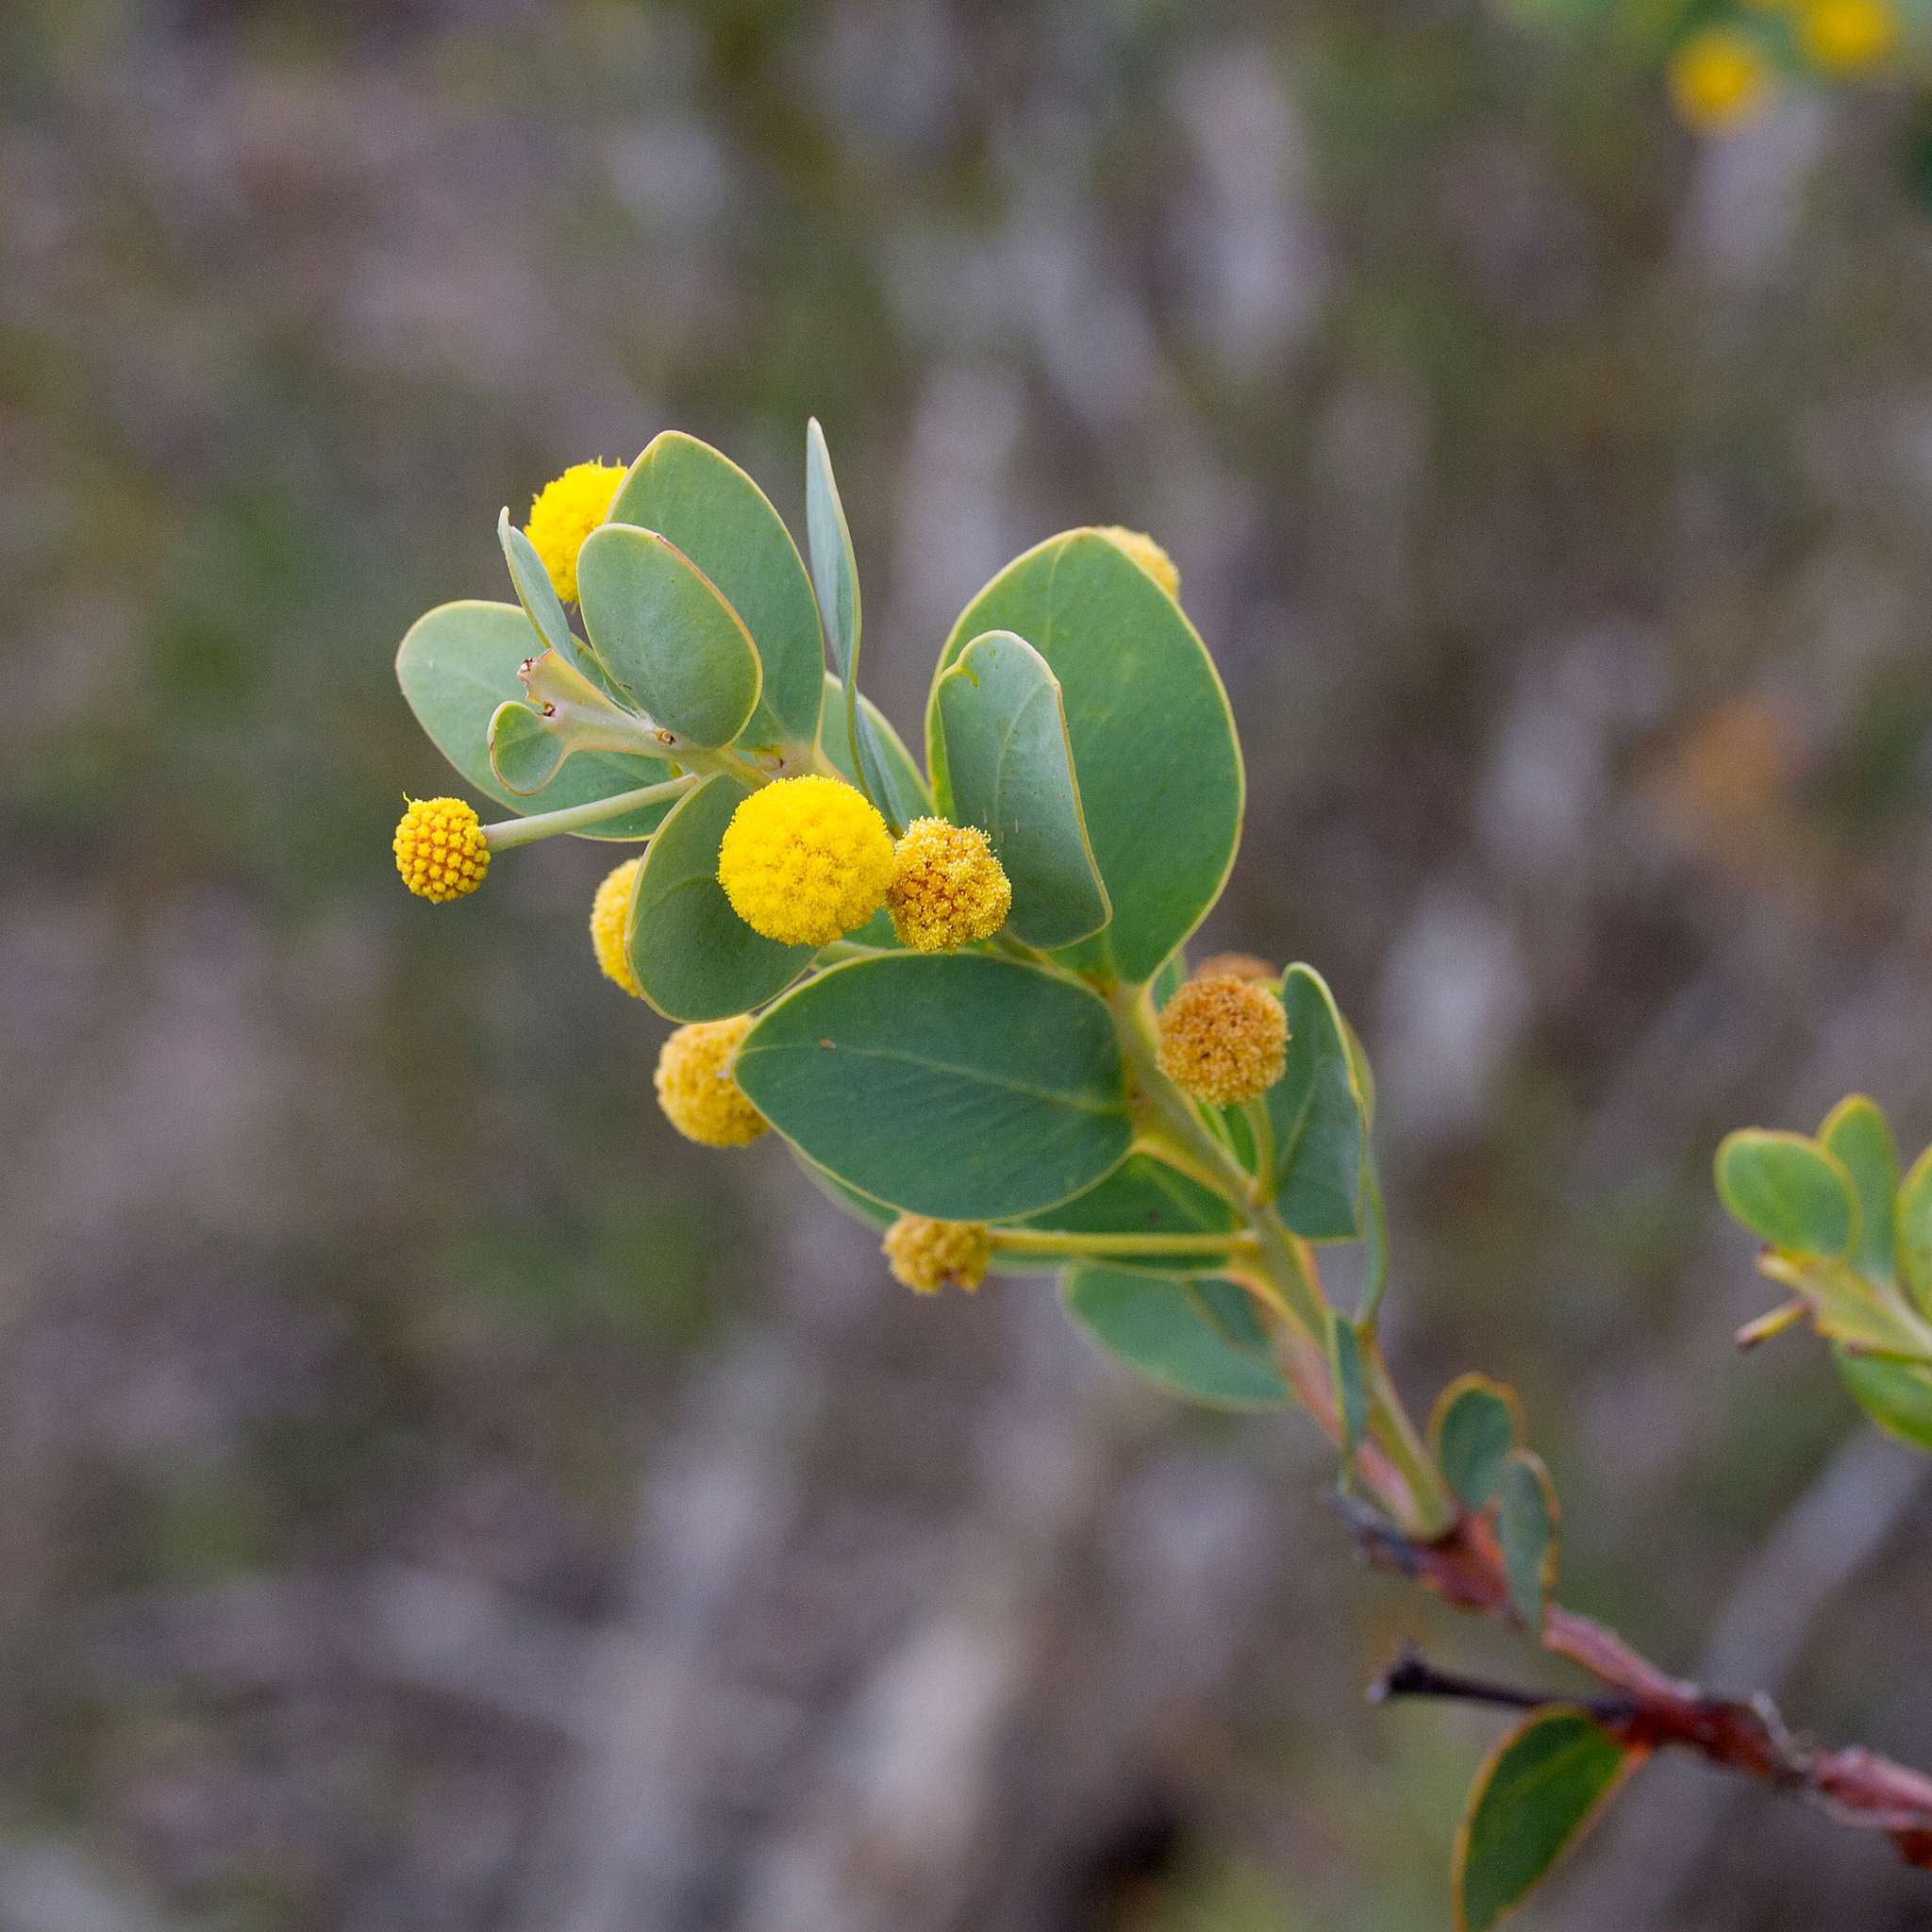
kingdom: Plantae
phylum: Tracheophyta
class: Magnoliopsida
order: Fabales
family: Fabaceae
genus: Acacia
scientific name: Acacia anceps
